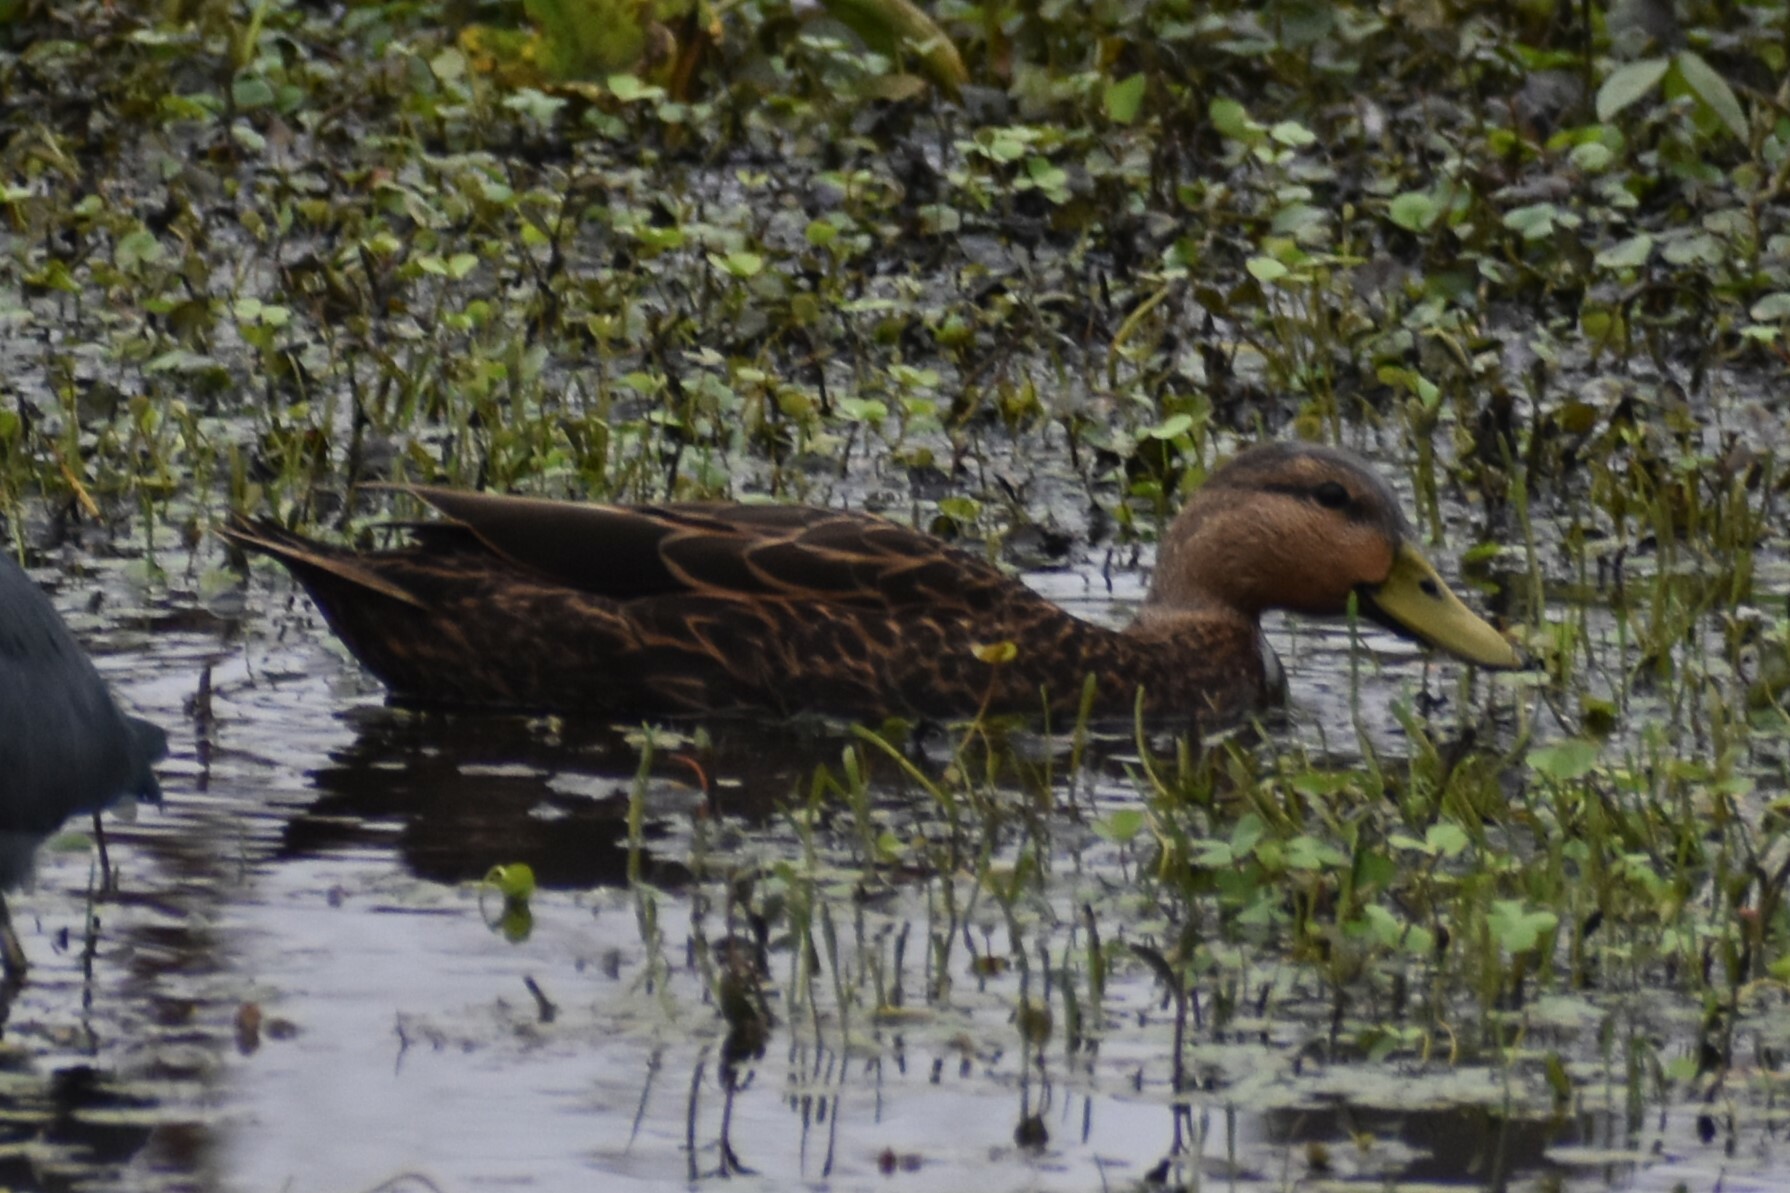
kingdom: Animalia
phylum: Chordata
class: Aves
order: Anseriformes
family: Anatidae
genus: Anas
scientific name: Anas fulvigula
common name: Mottled duck
